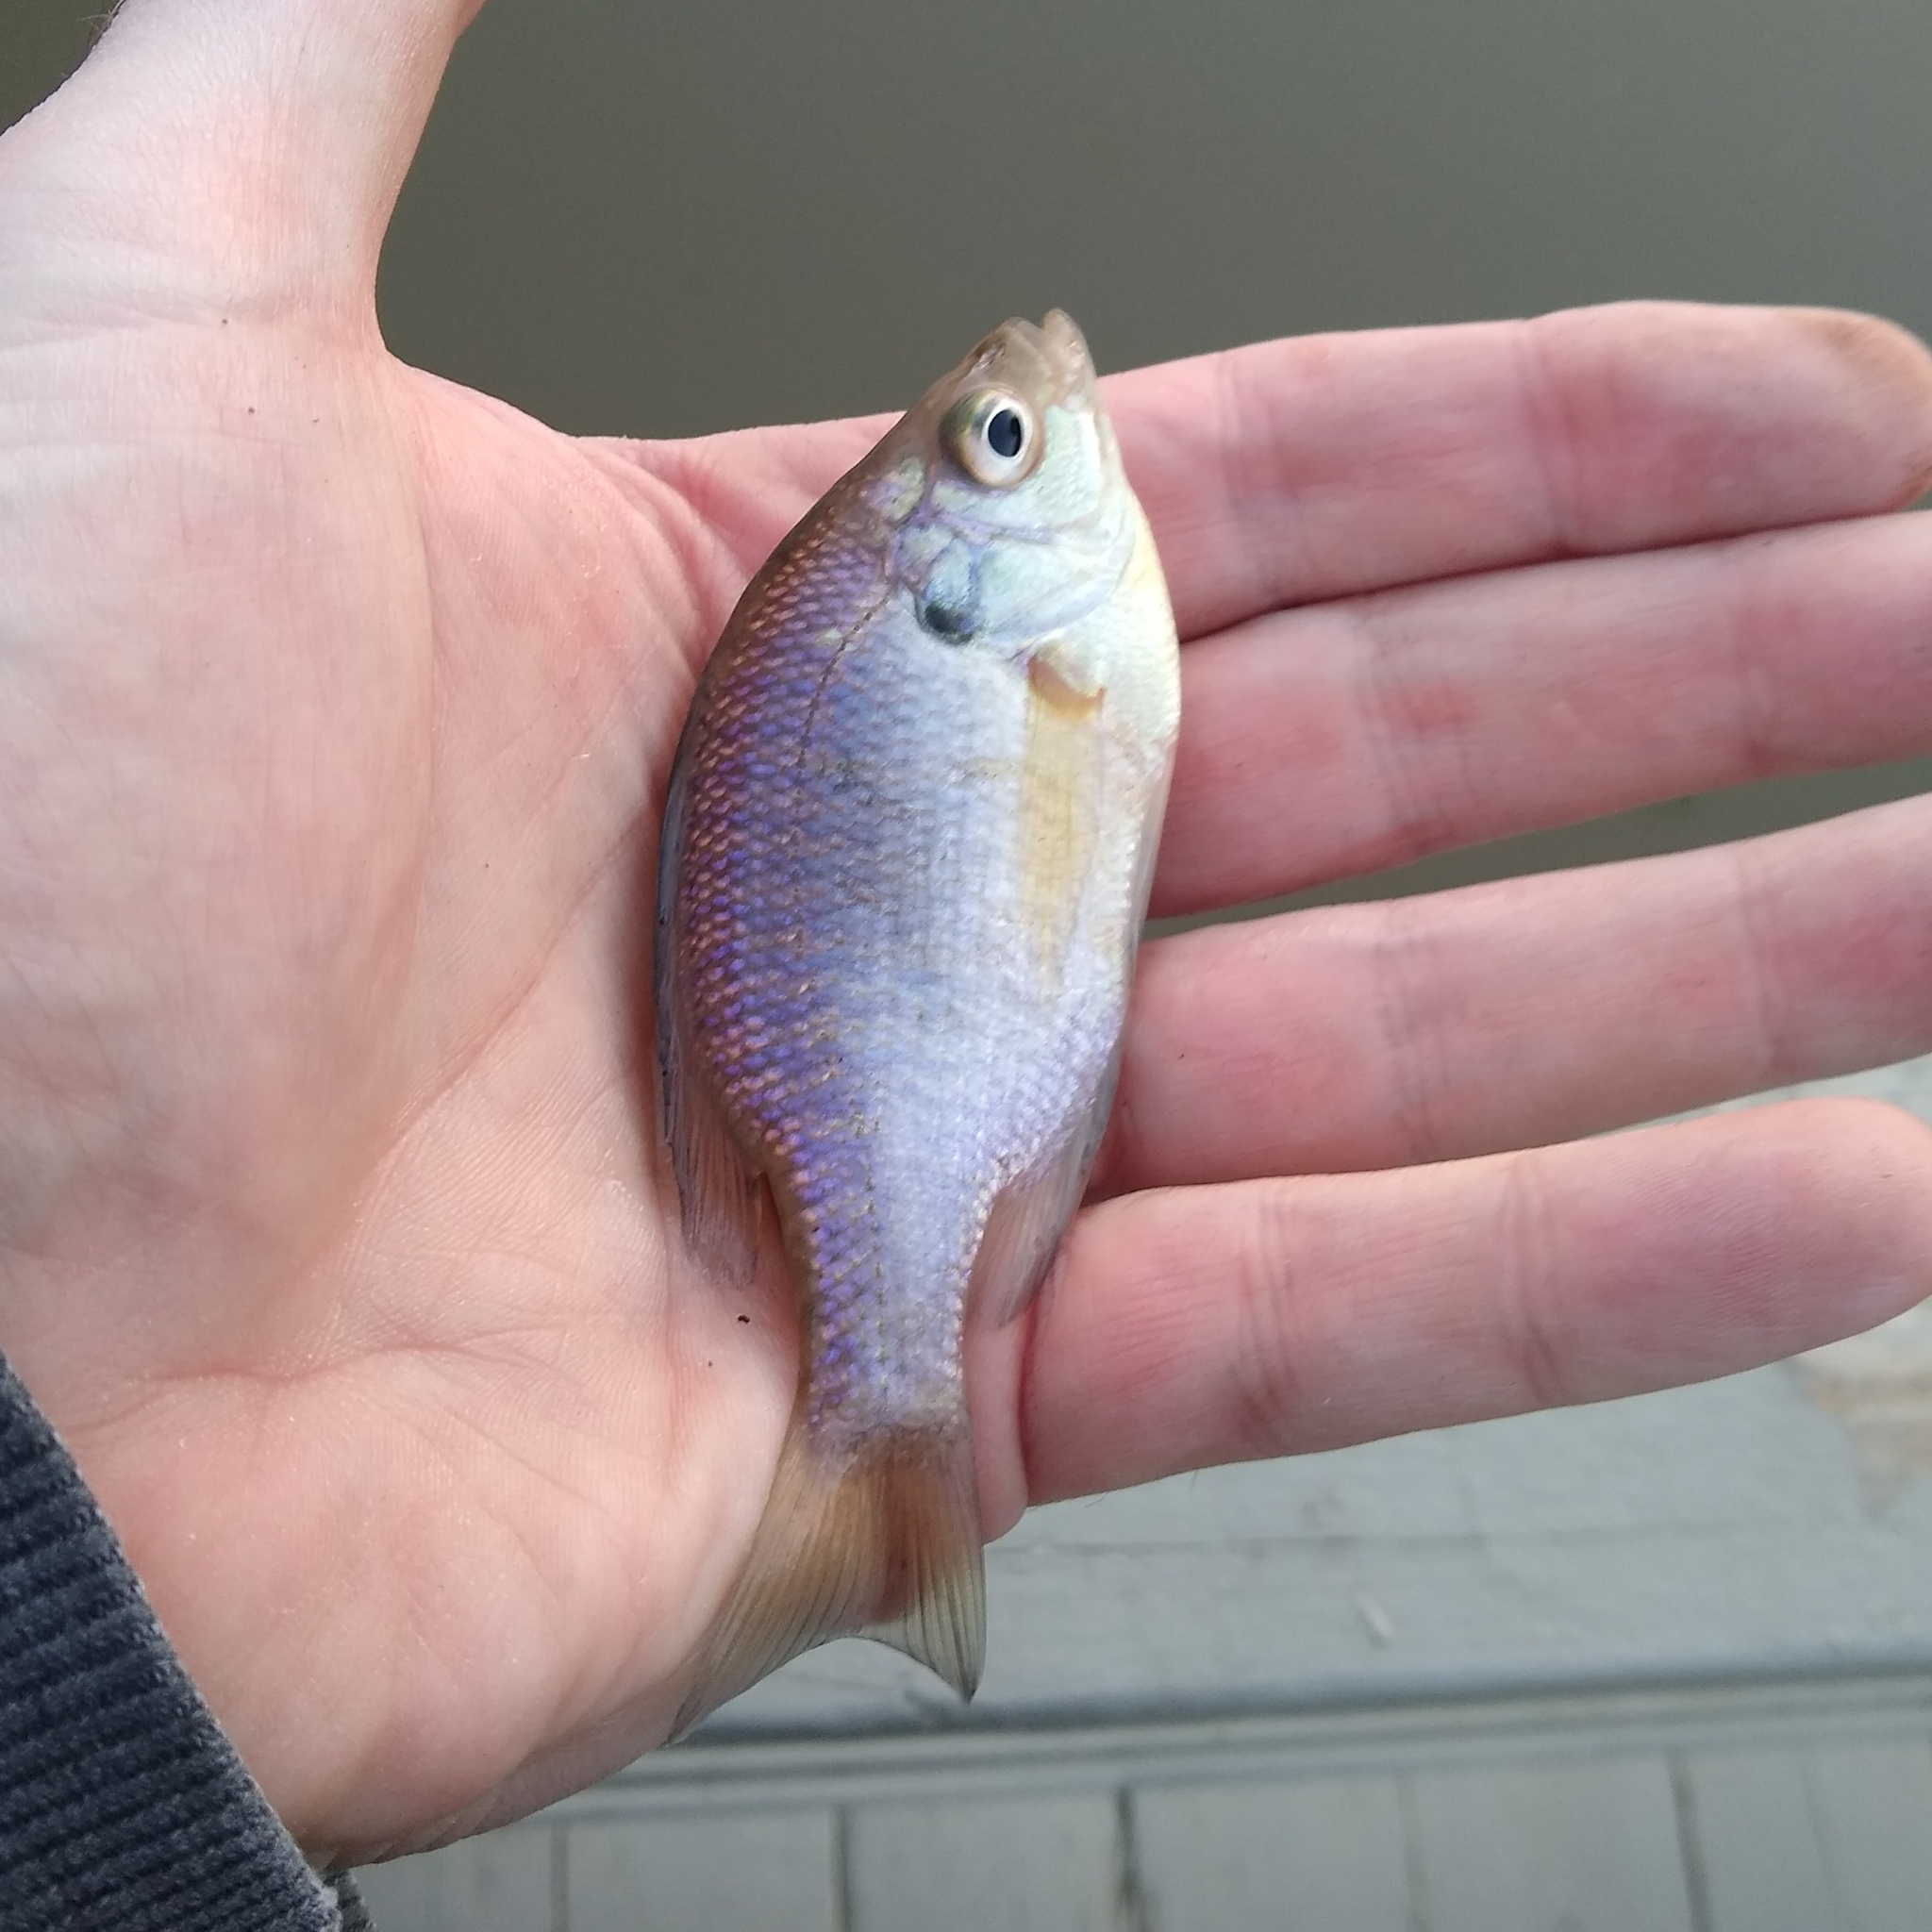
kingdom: Animalia
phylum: Chordata
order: Perciformes
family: Centrarchidae
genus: Lepomis
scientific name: Lepomis macrochirus
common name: Bluegill
